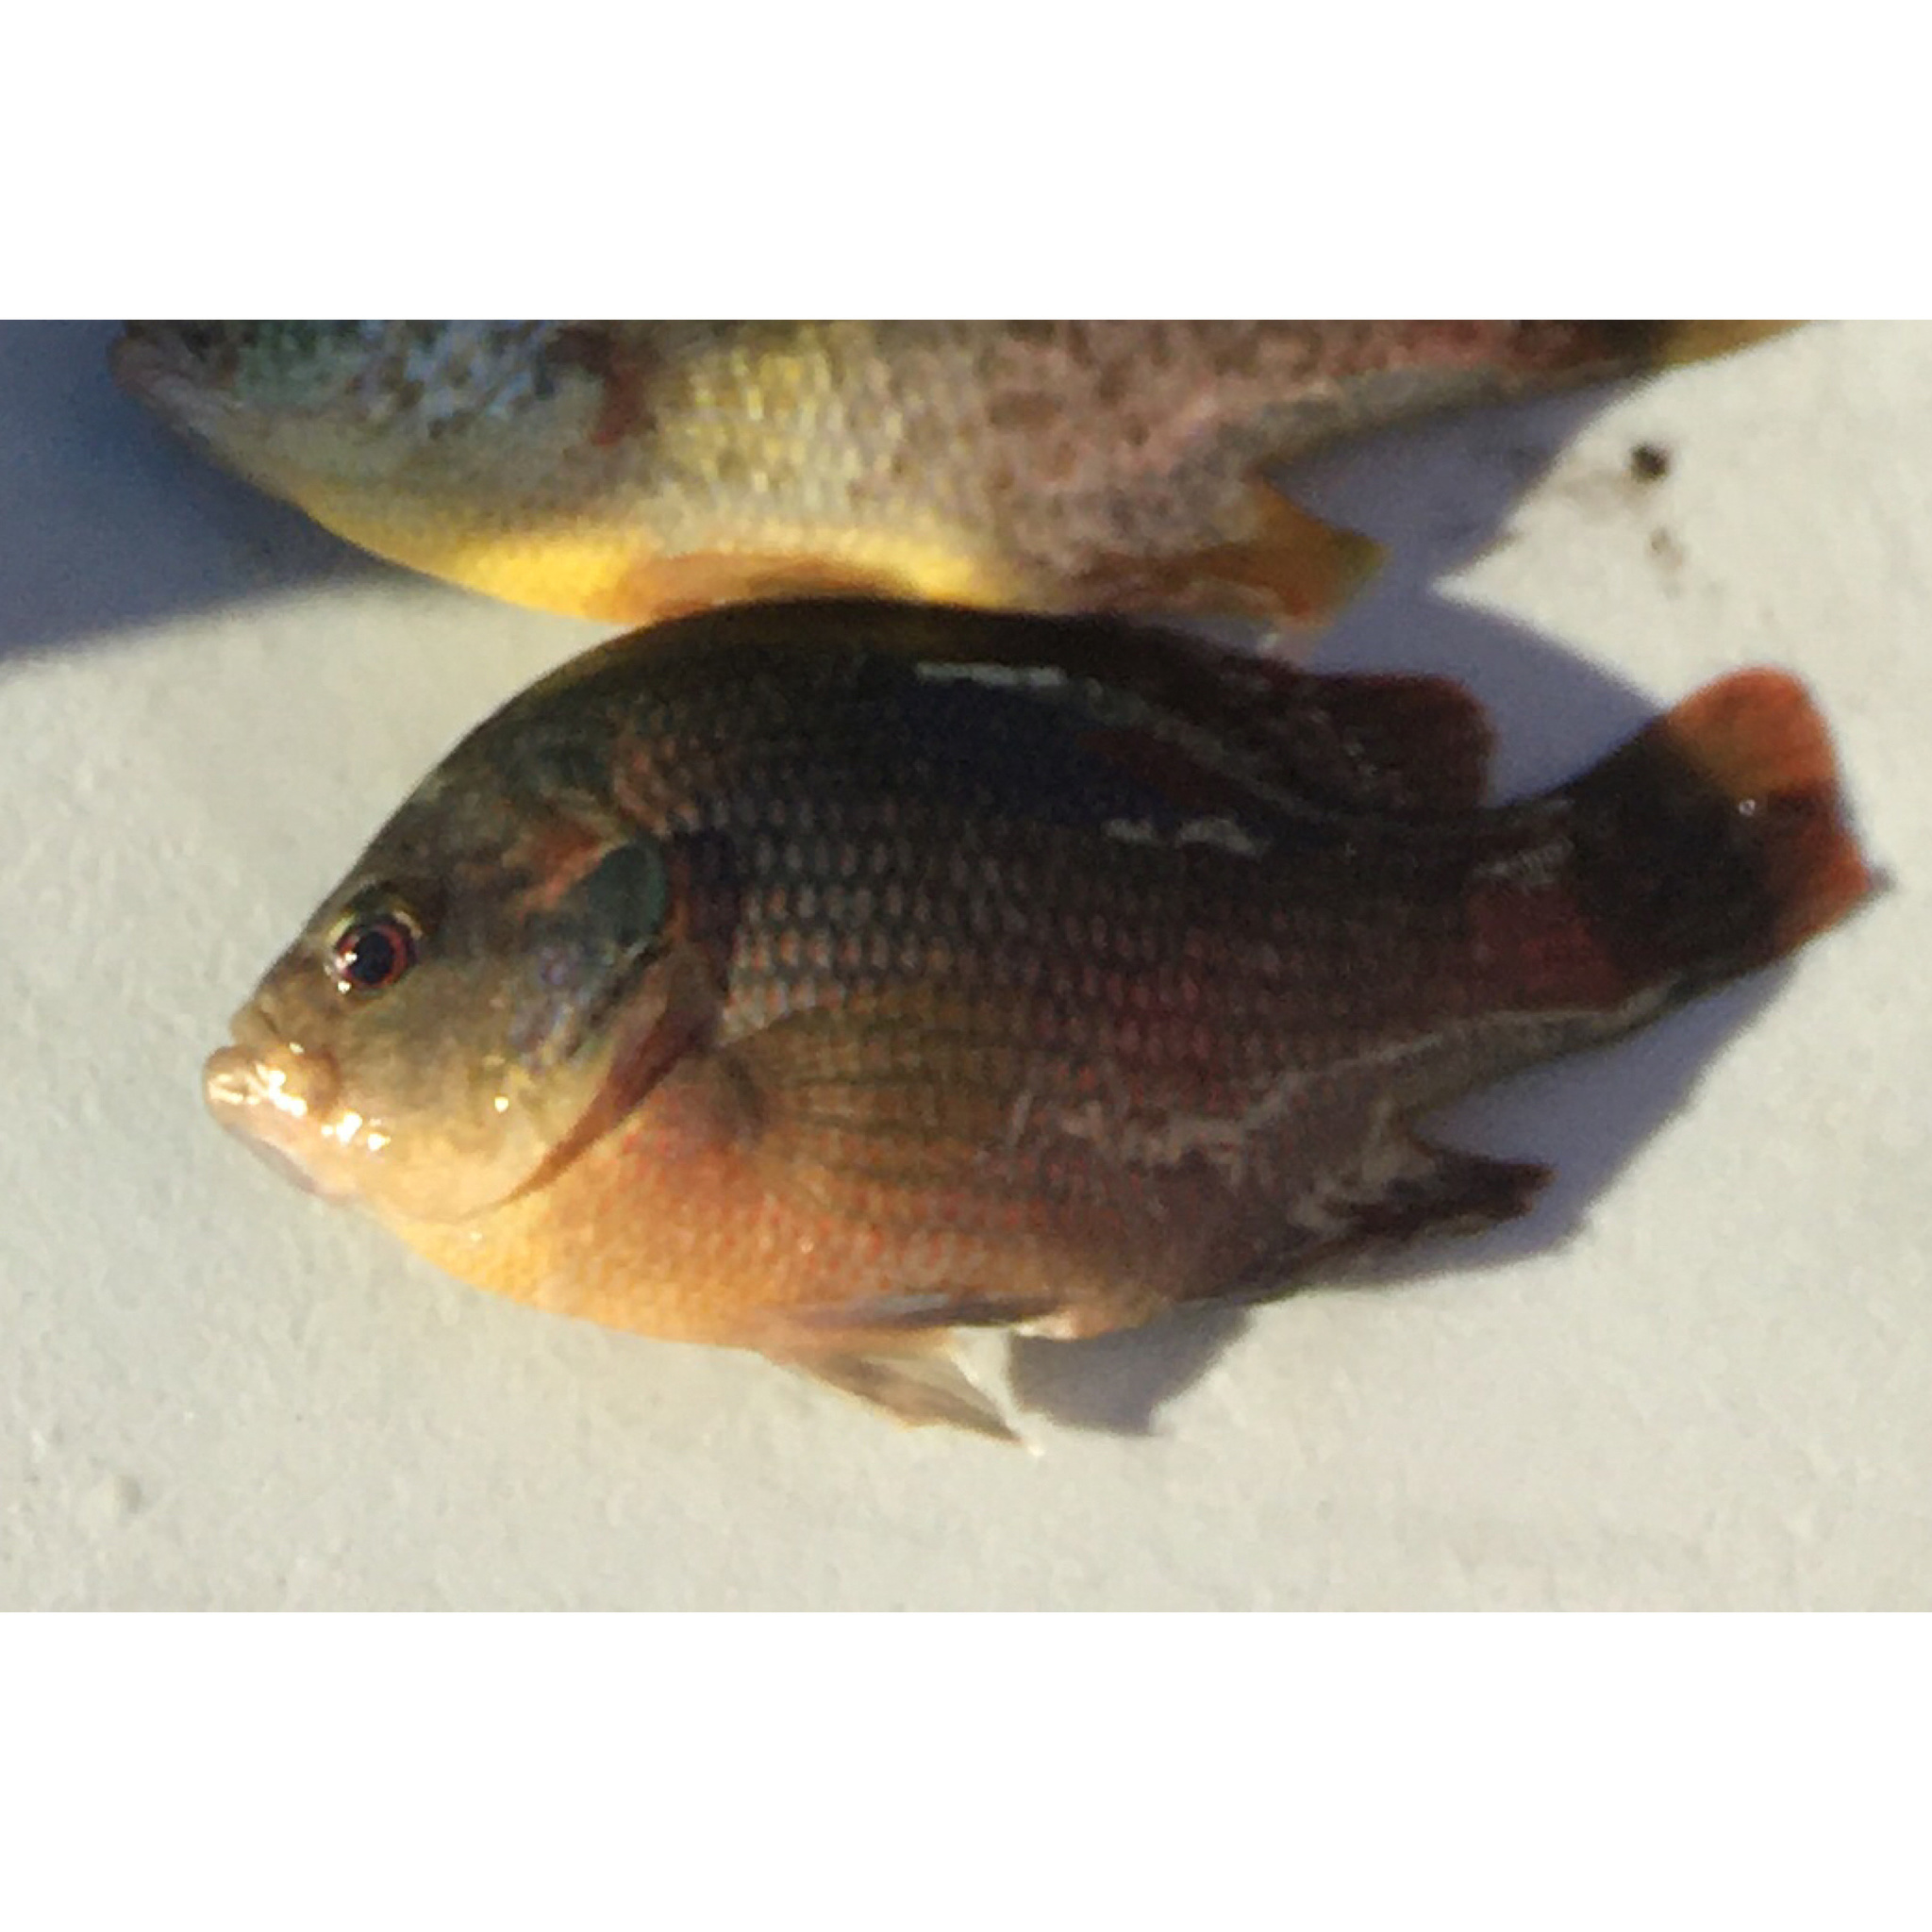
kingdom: Animalia
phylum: Chordata
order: Perciformes
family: Centrarchidae
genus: Lepomis
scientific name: Lepomis miniatus
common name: Redspotted sunfish
